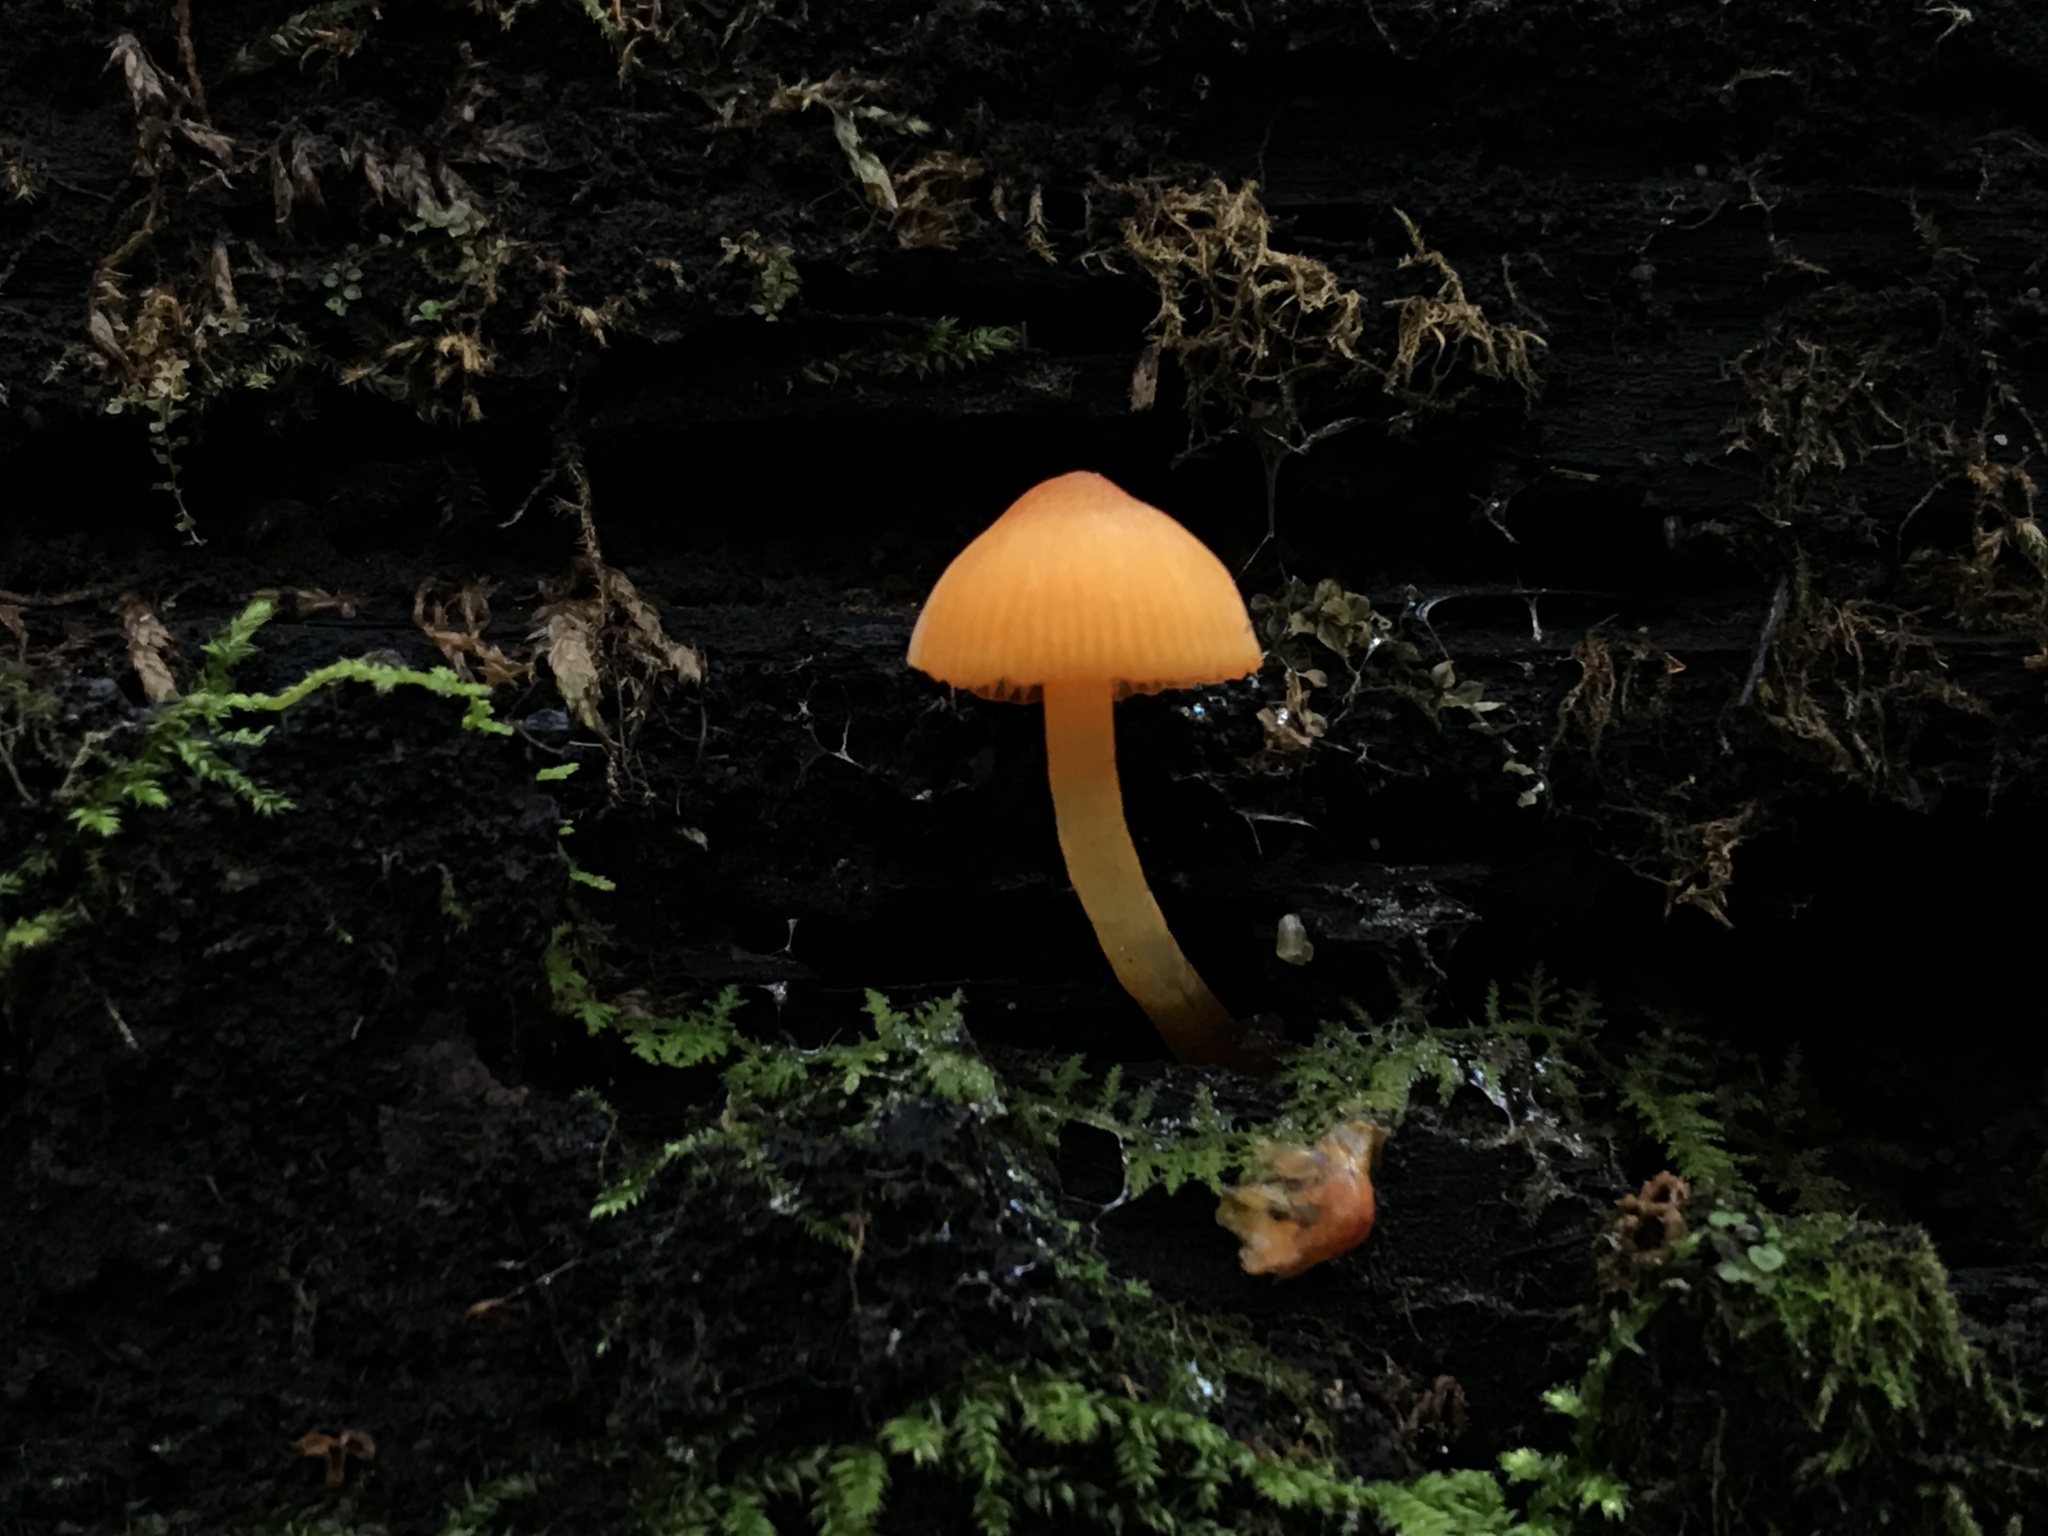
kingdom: Fungi
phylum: Basidiomycota
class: Agaricomycetes
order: Agaricales
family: Mycenaceae
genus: Mycena
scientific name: Mycena leaiana
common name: Orange mycena
